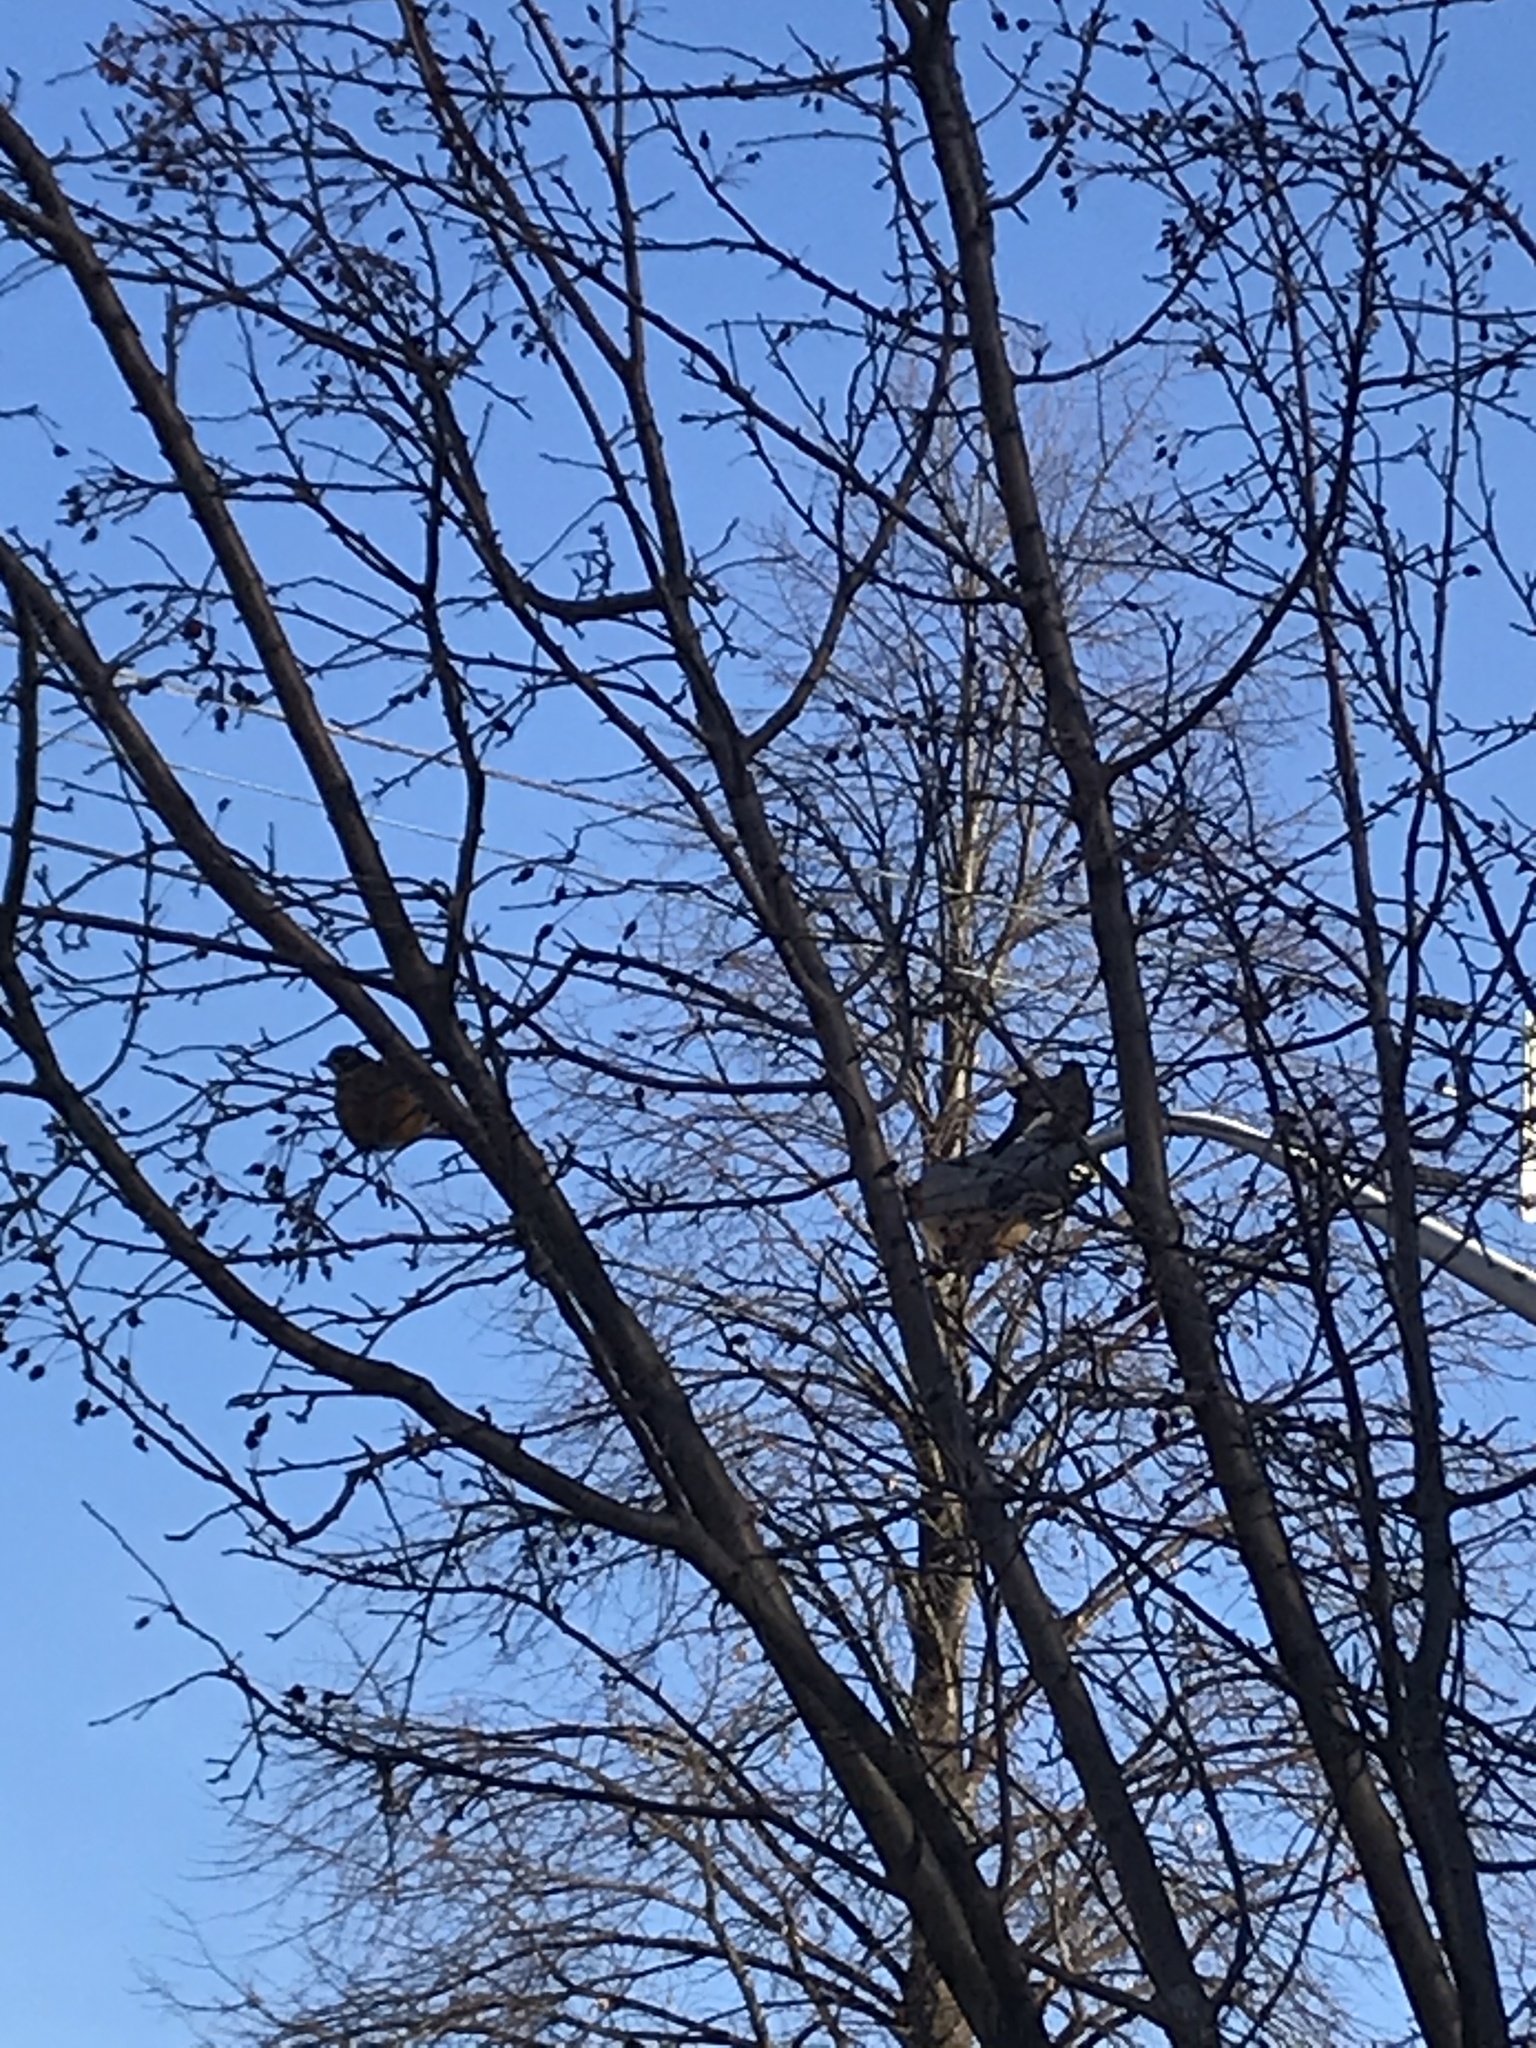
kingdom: Animalia
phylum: Chordata
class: Aves
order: Passeriformes
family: Turdidae
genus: Turdus
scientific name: Turdus migratorius
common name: American robin
